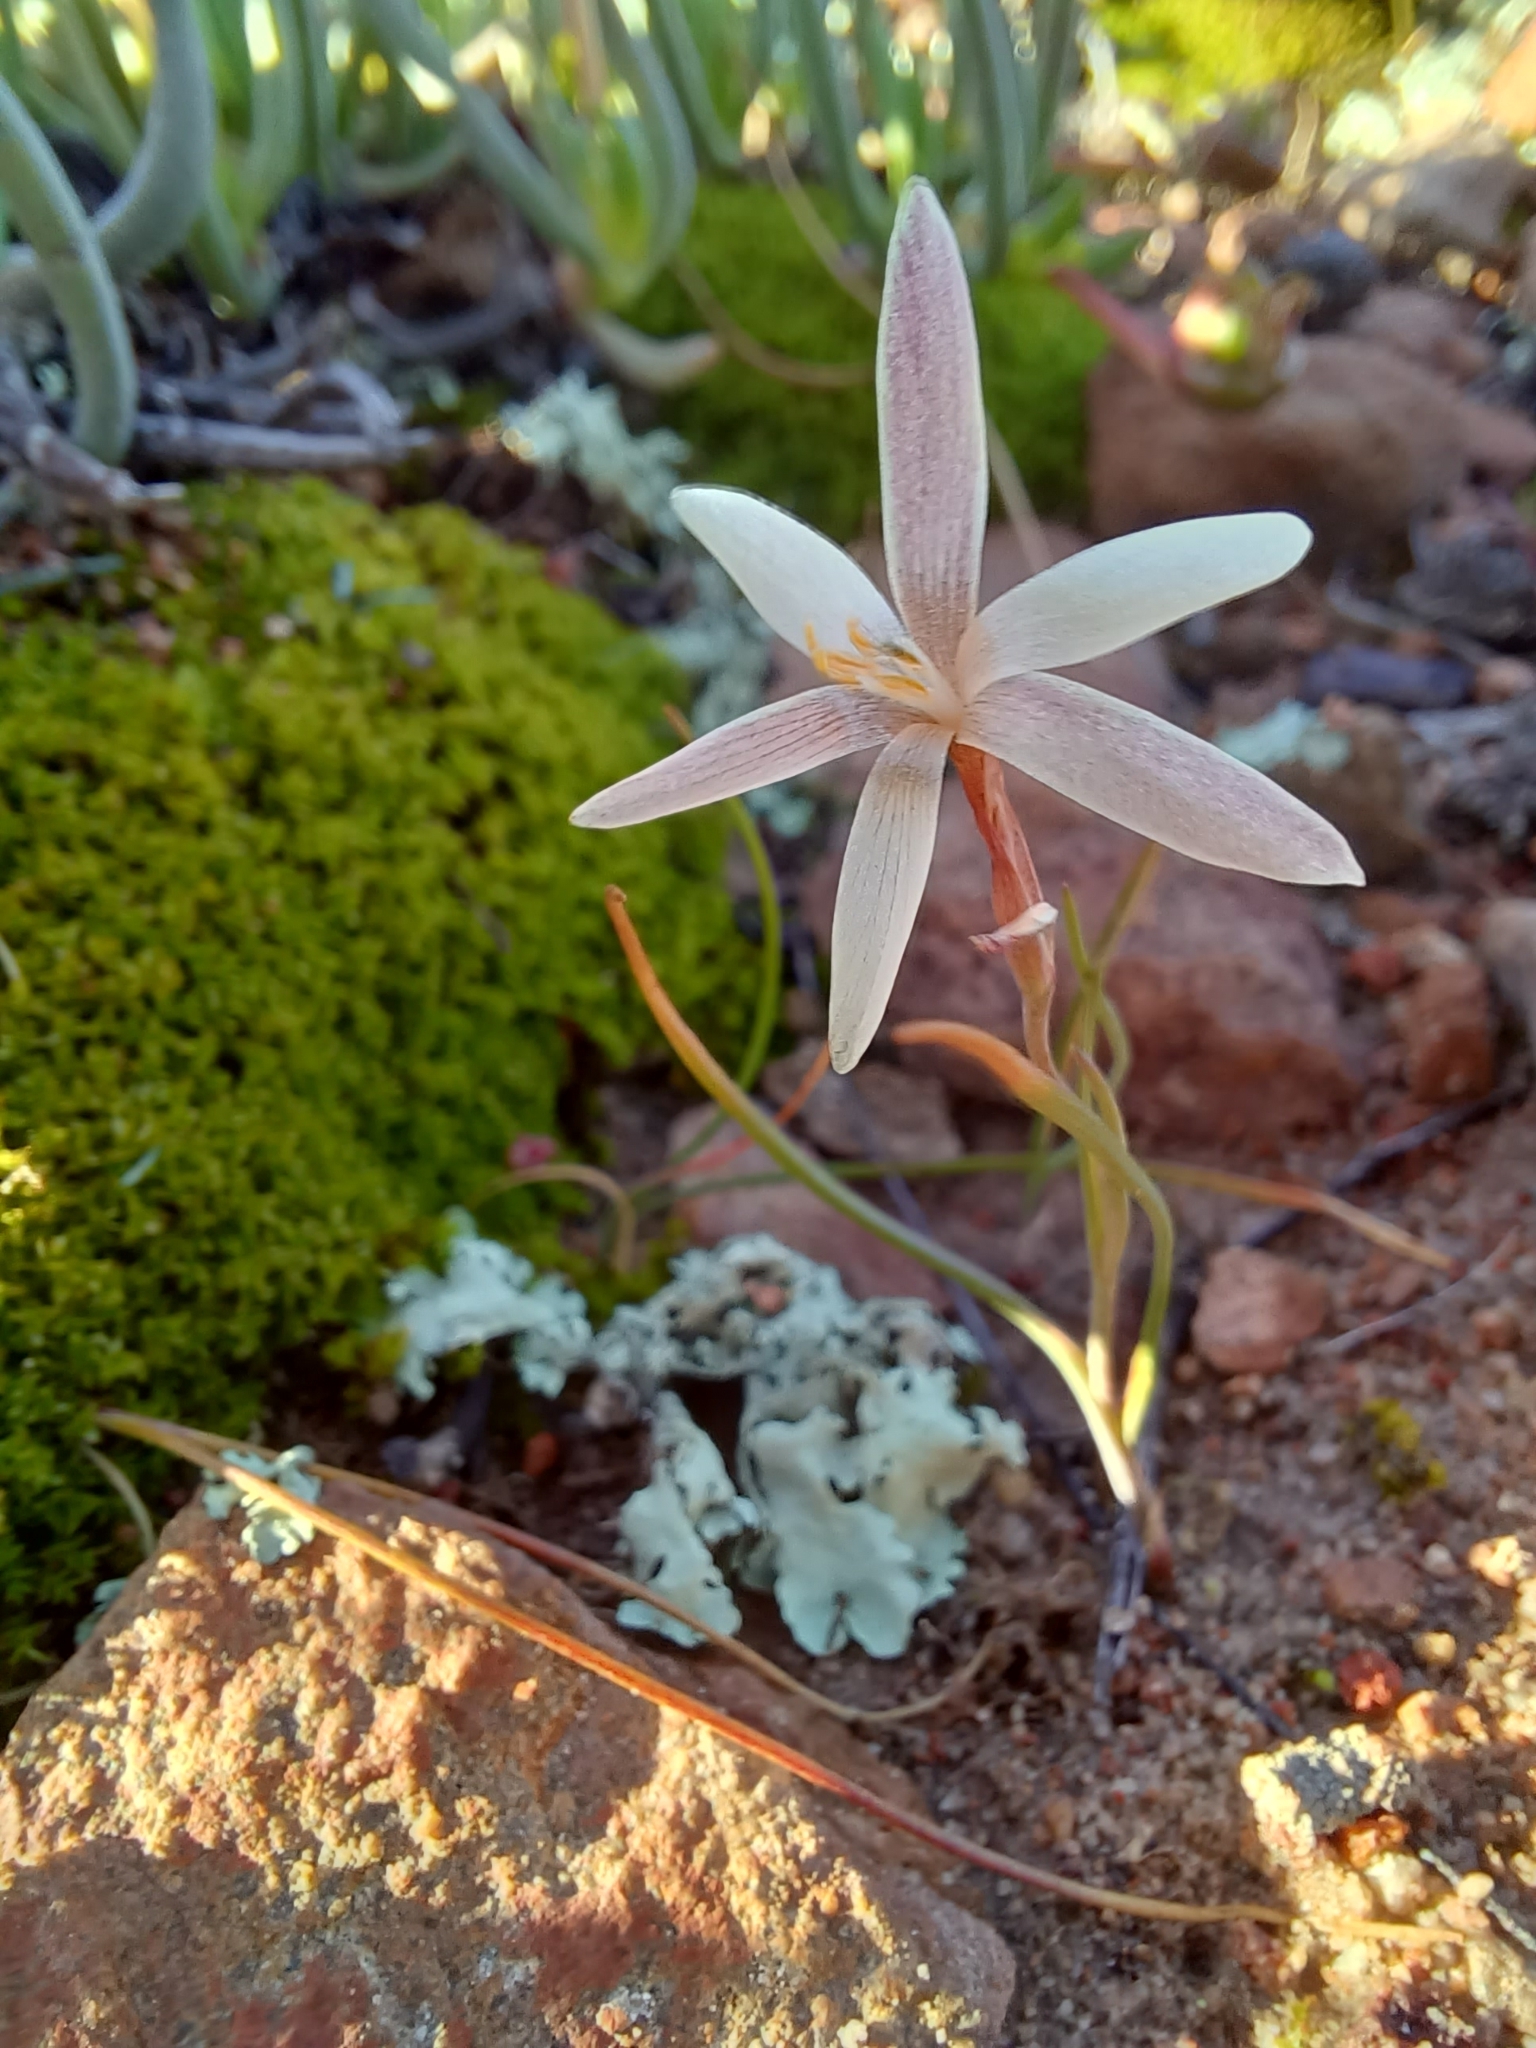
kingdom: Plantae
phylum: Tracheophyta
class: Liliopsida
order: Asparagales
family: Iridaceae
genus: Hesperantha
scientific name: Hesperantha radiata
